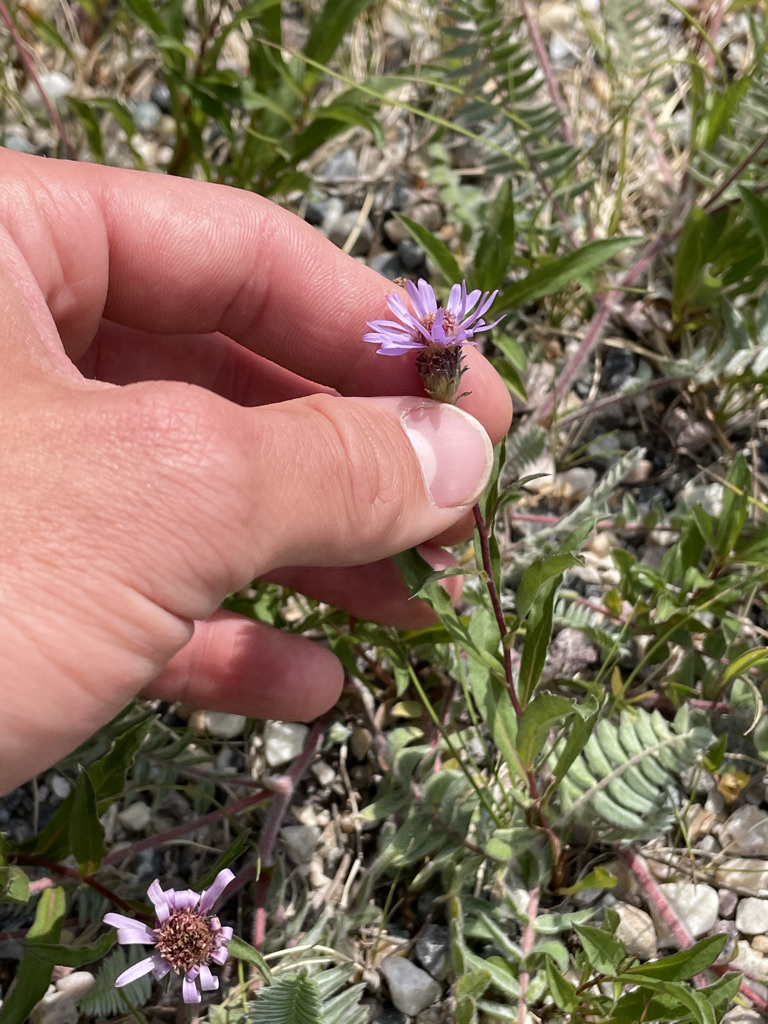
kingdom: Plantae
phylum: Tracheophyta
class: Magnoliopsida
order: Asterales
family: Asteraceae
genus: Eurybia
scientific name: Eurybia sibirica
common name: Arctic aster
